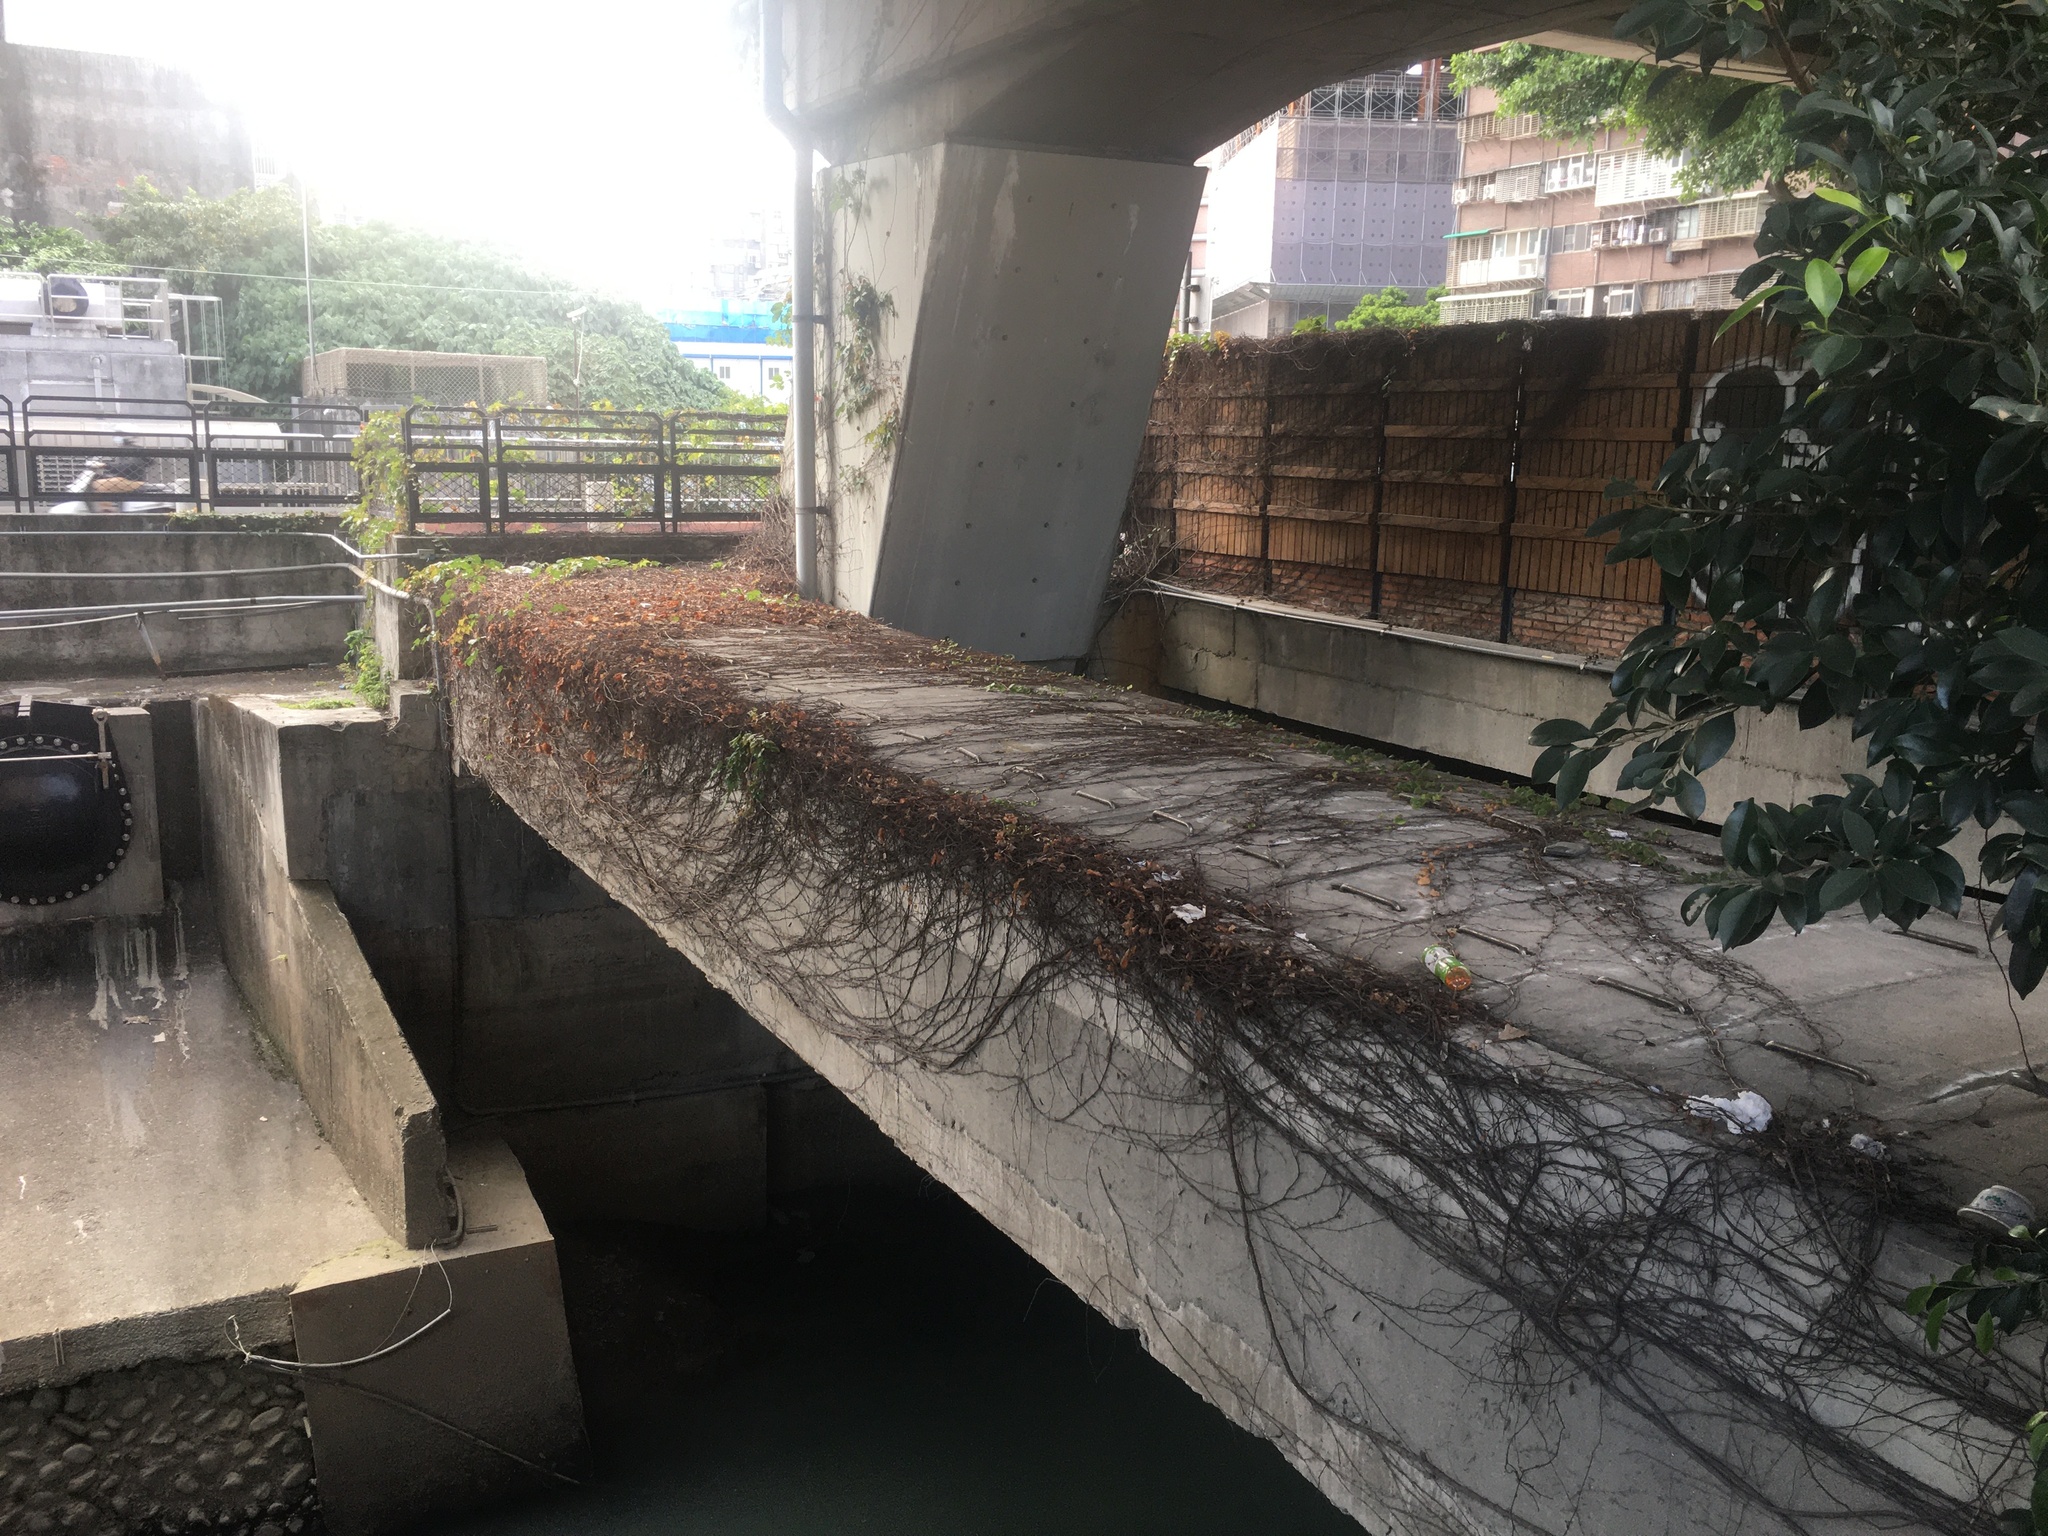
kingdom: Plantae
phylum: Tracheophyta
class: Magnoliopsida
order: Rosales
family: Moraceae
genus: Ficus
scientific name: Ficus microcarpa
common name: Chinese banyan
